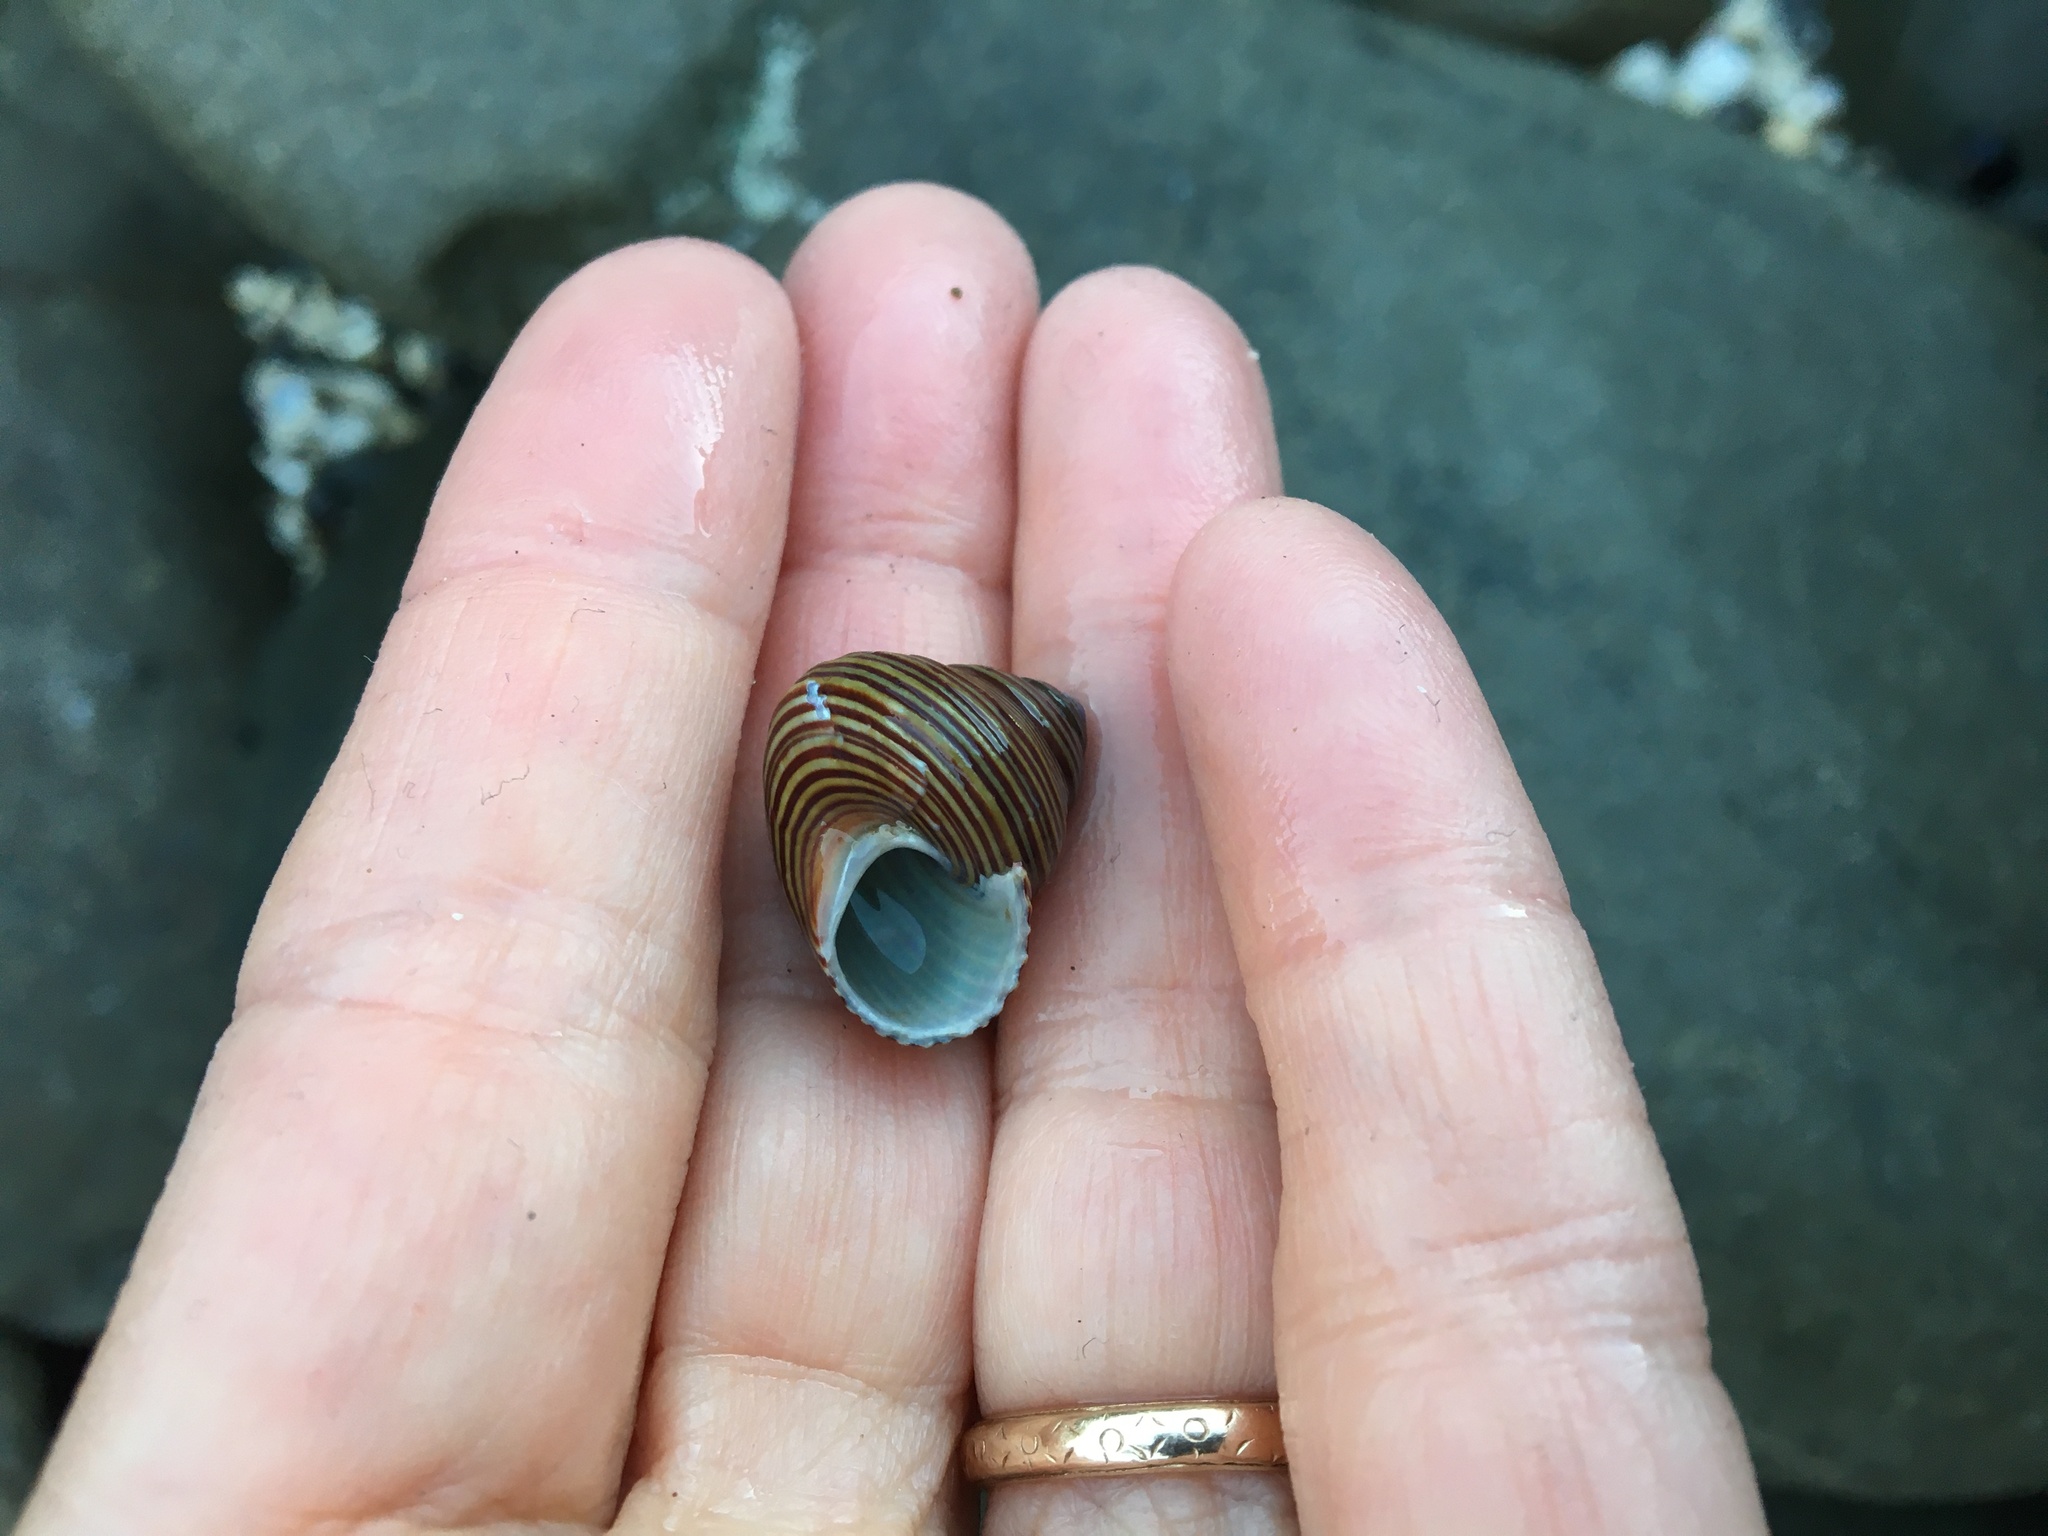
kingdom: Animalia
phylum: Mollusca
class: Gastropoda
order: Trochida
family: Calliostomatidae
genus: Calliostoma
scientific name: Calliostoma ligatum
